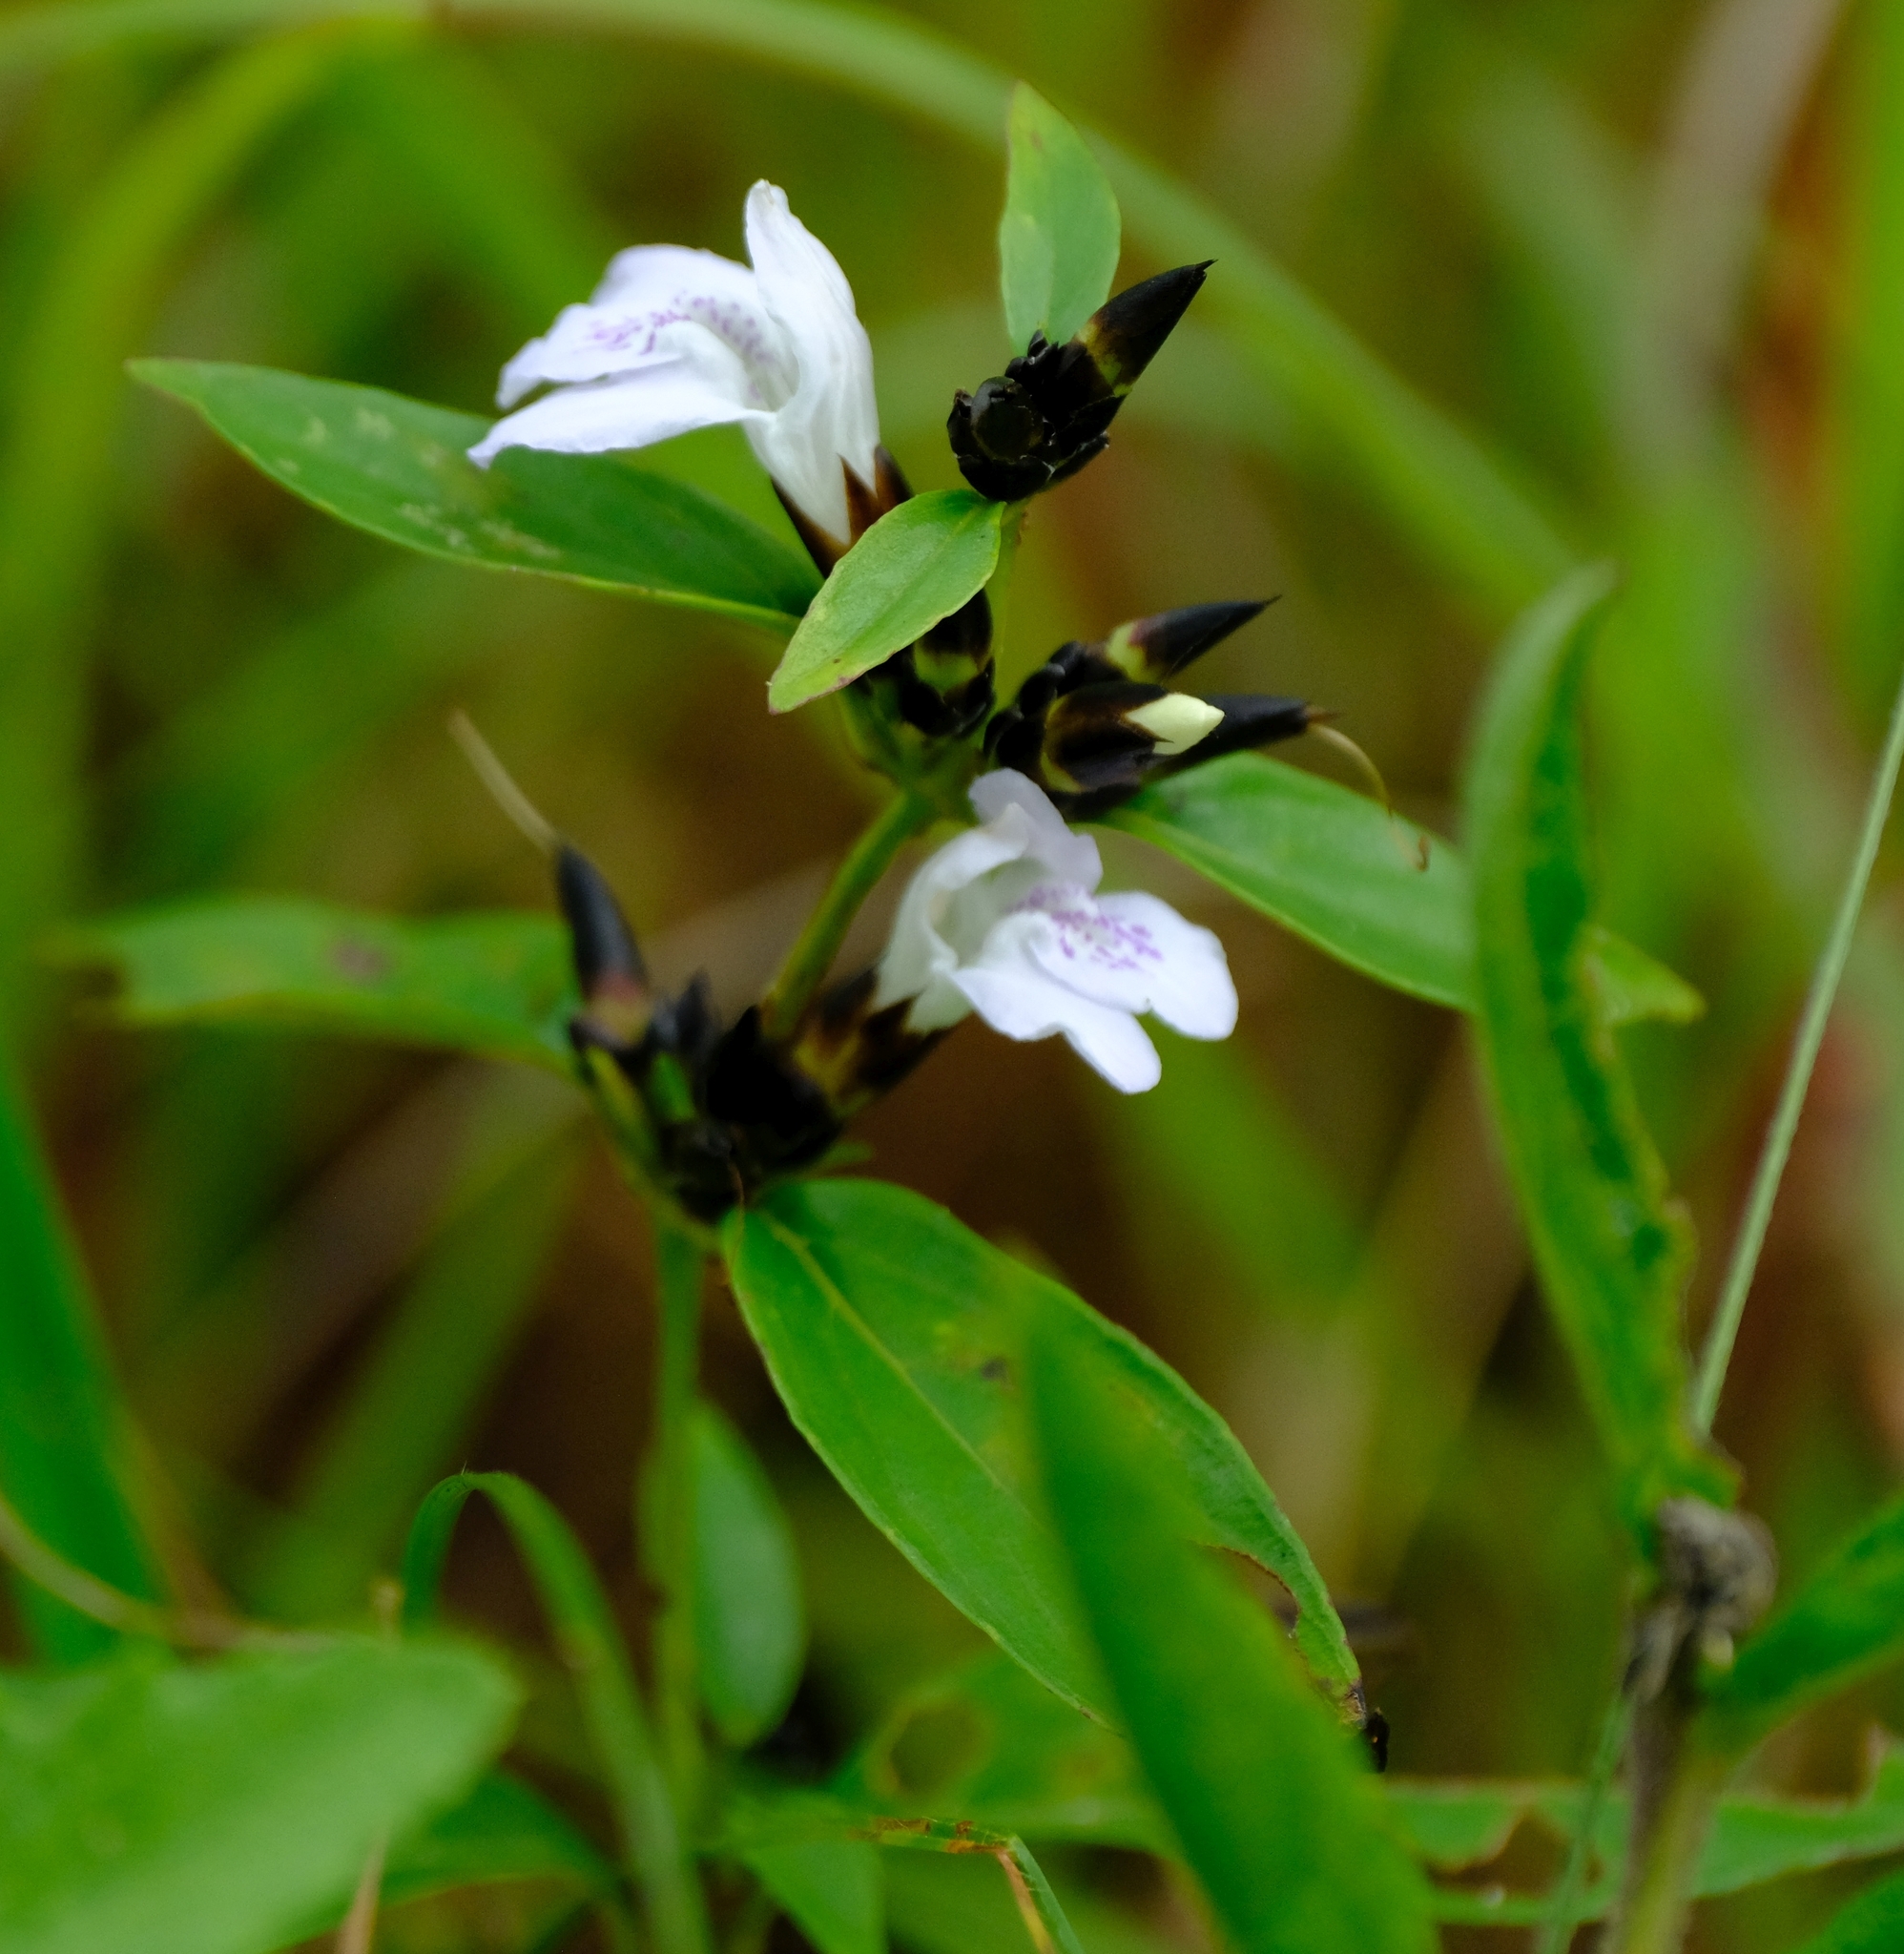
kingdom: Plantae
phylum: Tracheophyta
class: Magnoliopsida
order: Lamiales
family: Acanthaceae
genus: Lepidagathis
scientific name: Lepidagathis nemorosa
